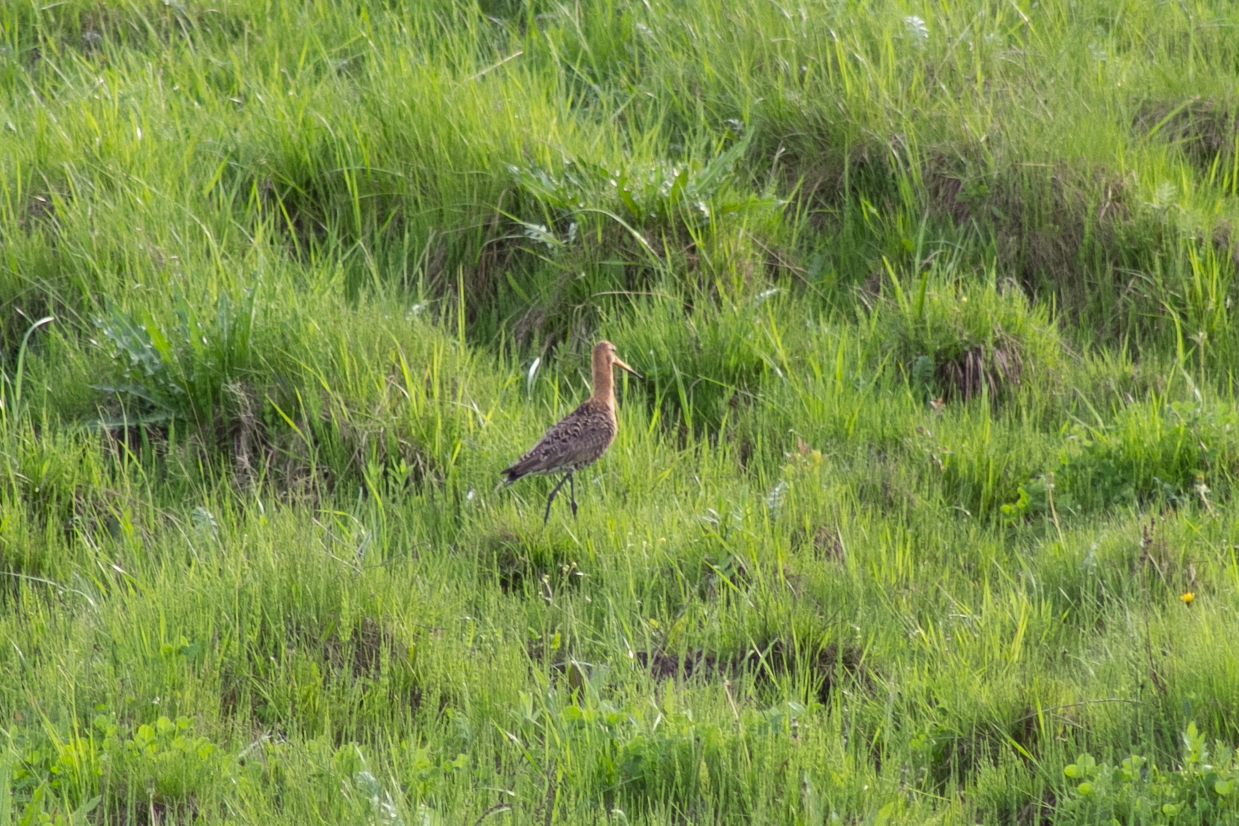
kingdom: Animalia
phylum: Chordata
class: Aves
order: Charadriiformes
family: Scolopacidae
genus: Limosa
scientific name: Limosa limosa
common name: Black-tailed godwit
